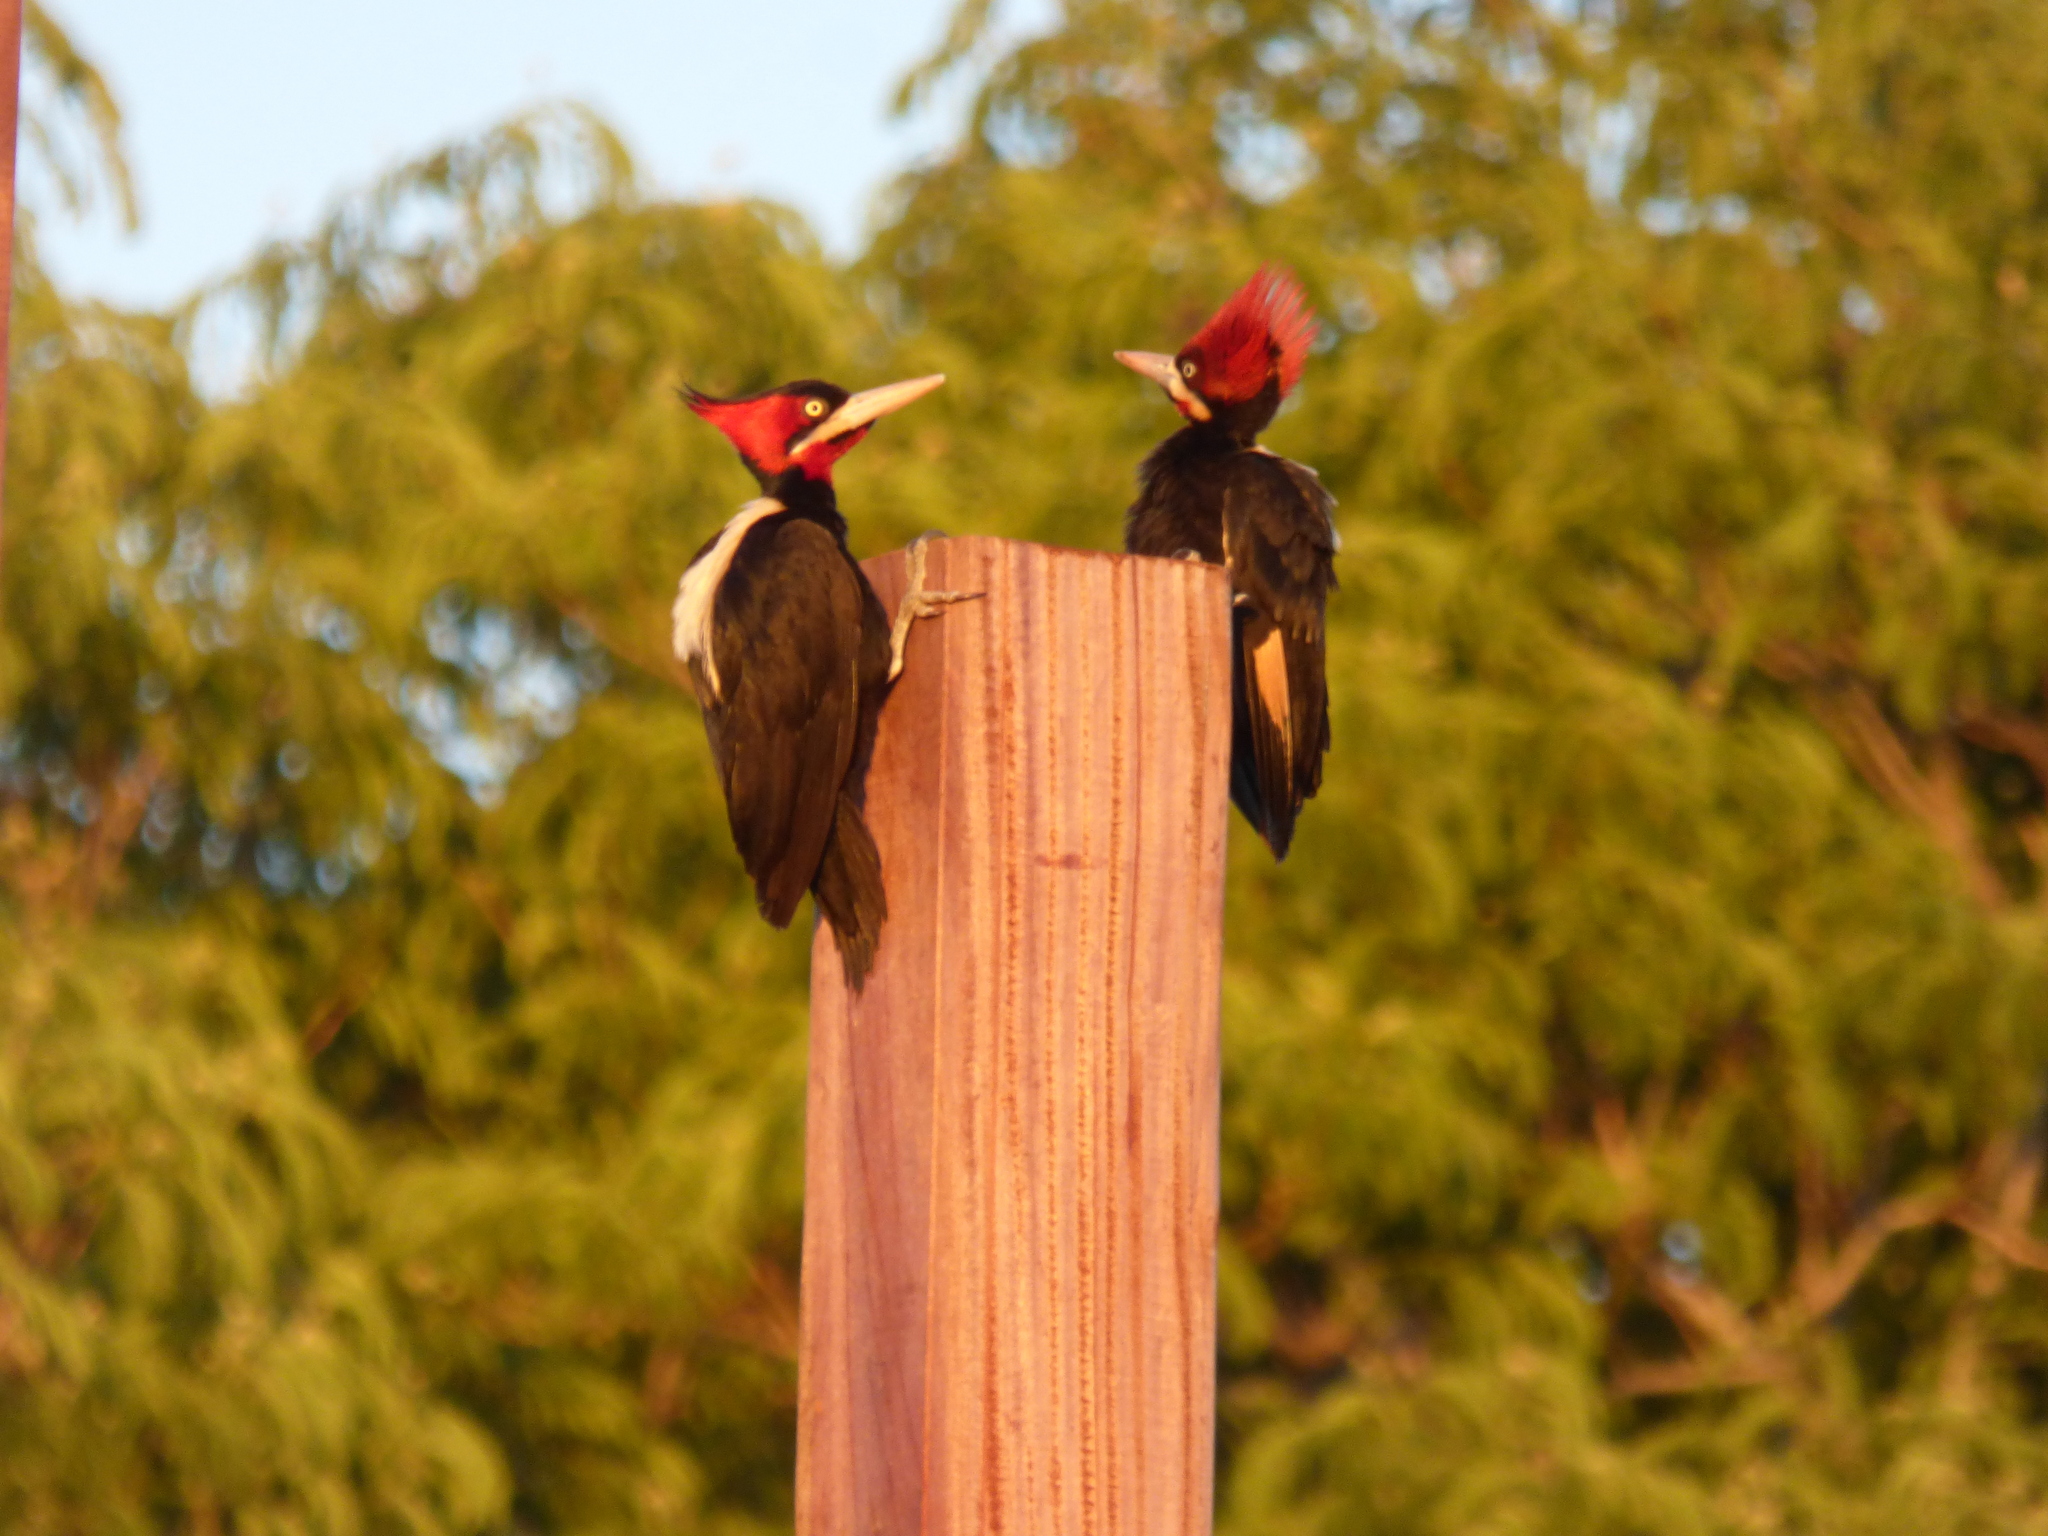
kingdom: Animalia
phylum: Chordata
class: Aves
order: Piciformes
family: Picidae
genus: Campephilus
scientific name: Campephilus leucopogon
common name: Cream-backed woodpecker
